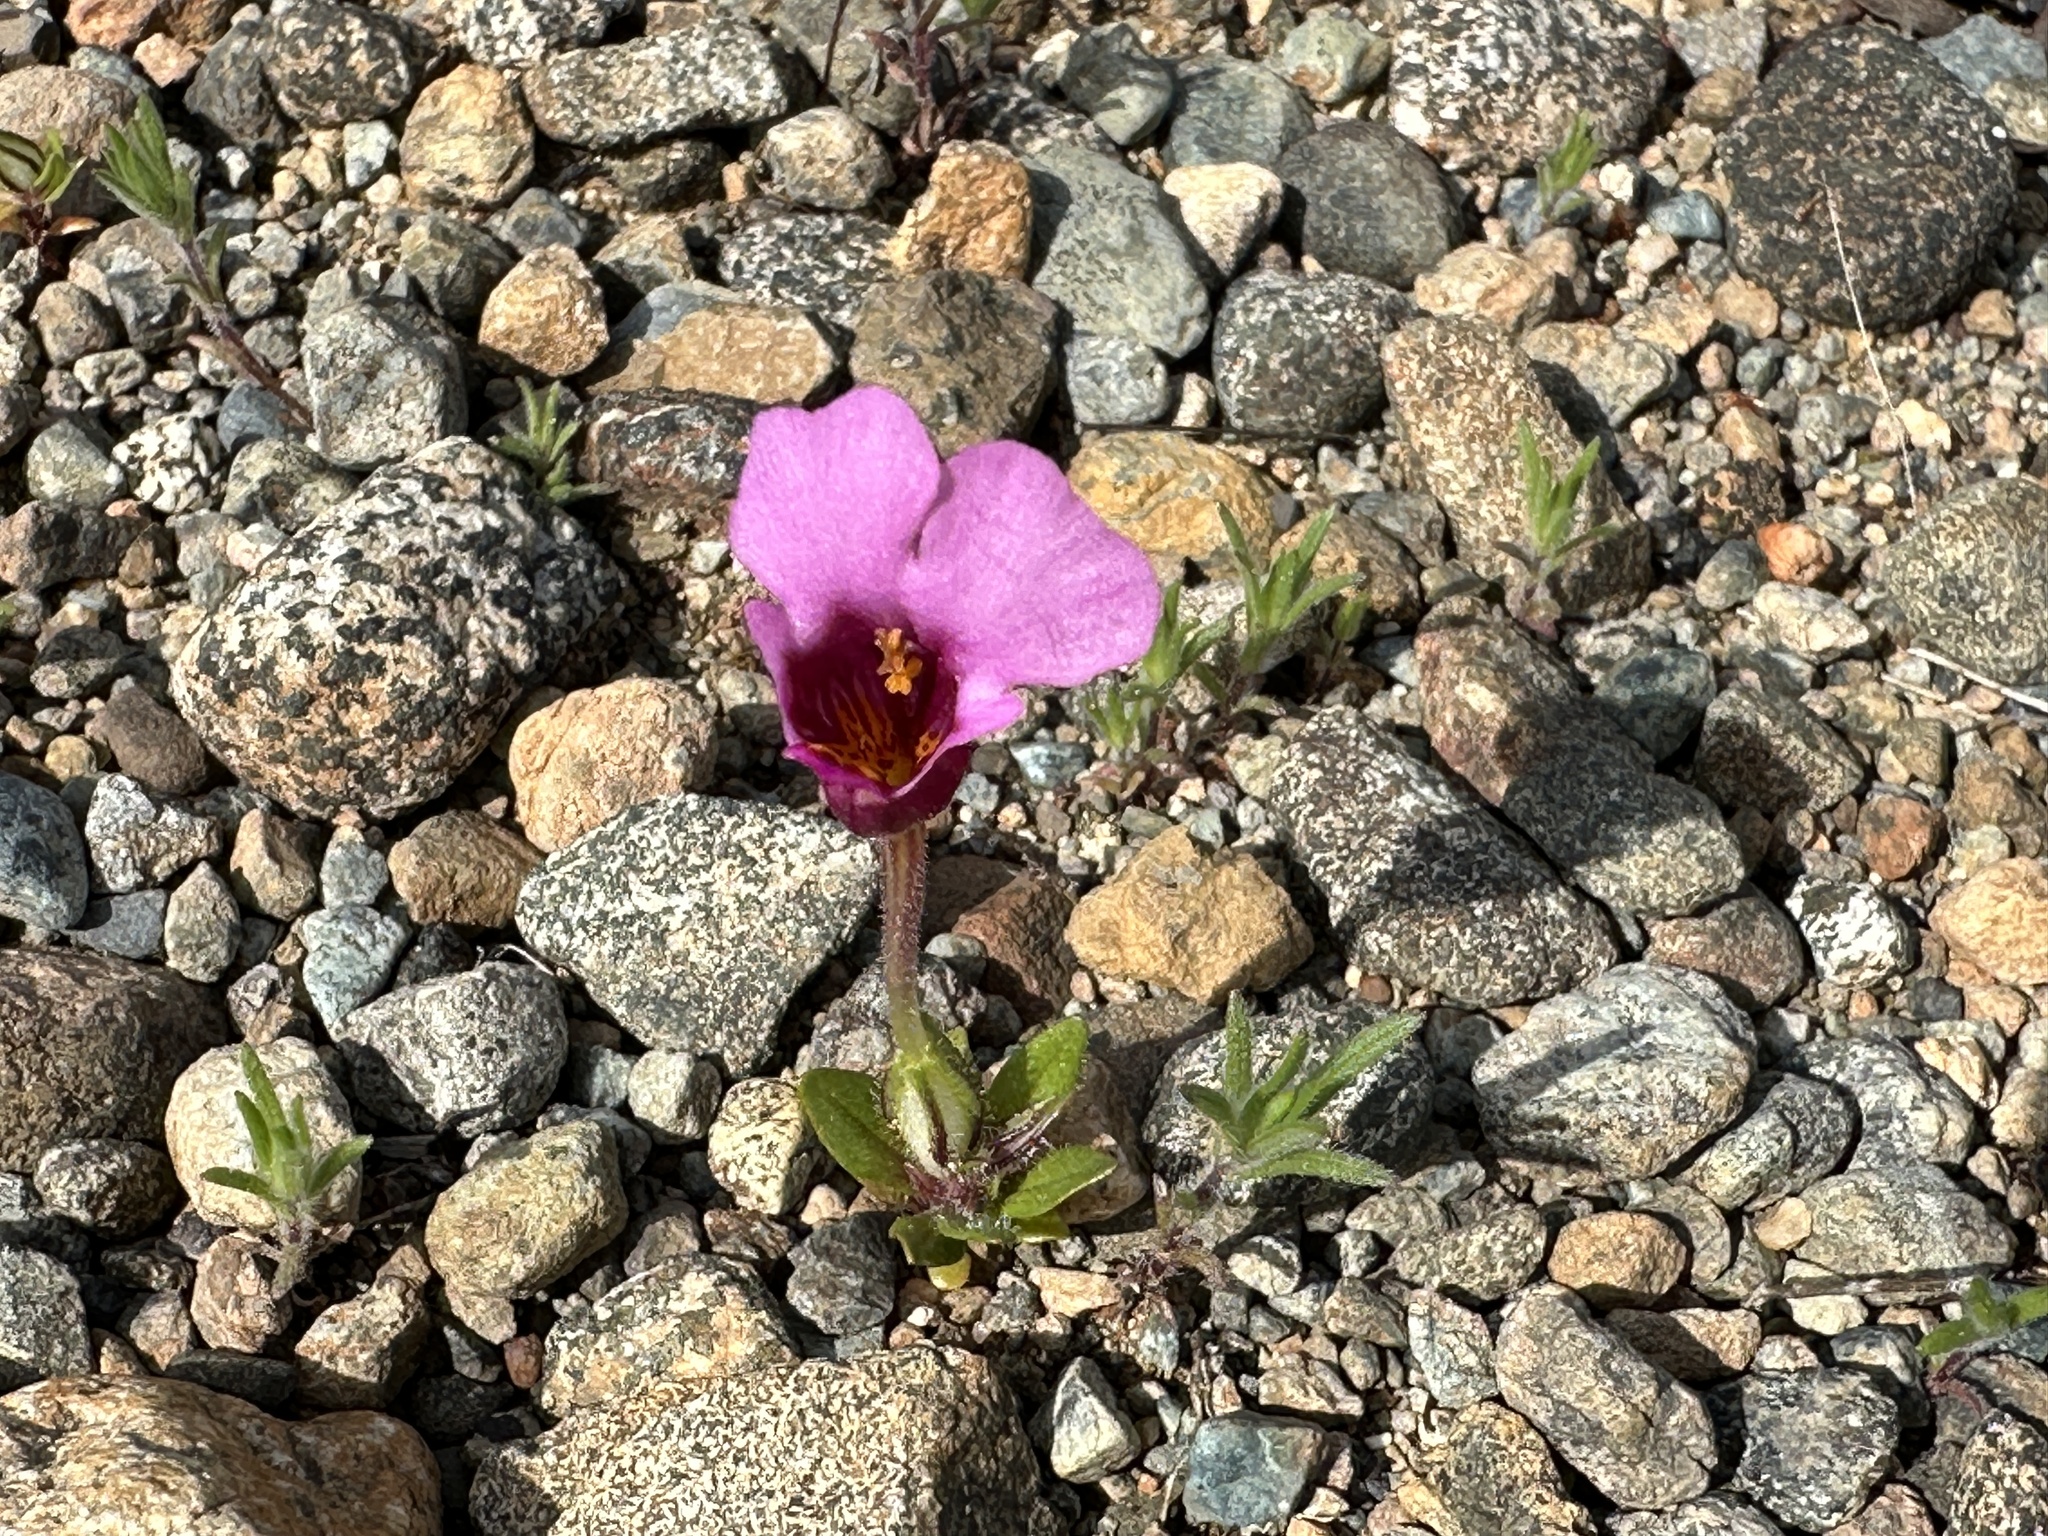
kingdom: Plantae
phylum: Tracheophyta
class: Magnoliopsida
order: Lamiales
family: Phrymaceae
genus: Diplacus
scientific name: Diplacus douglasii
